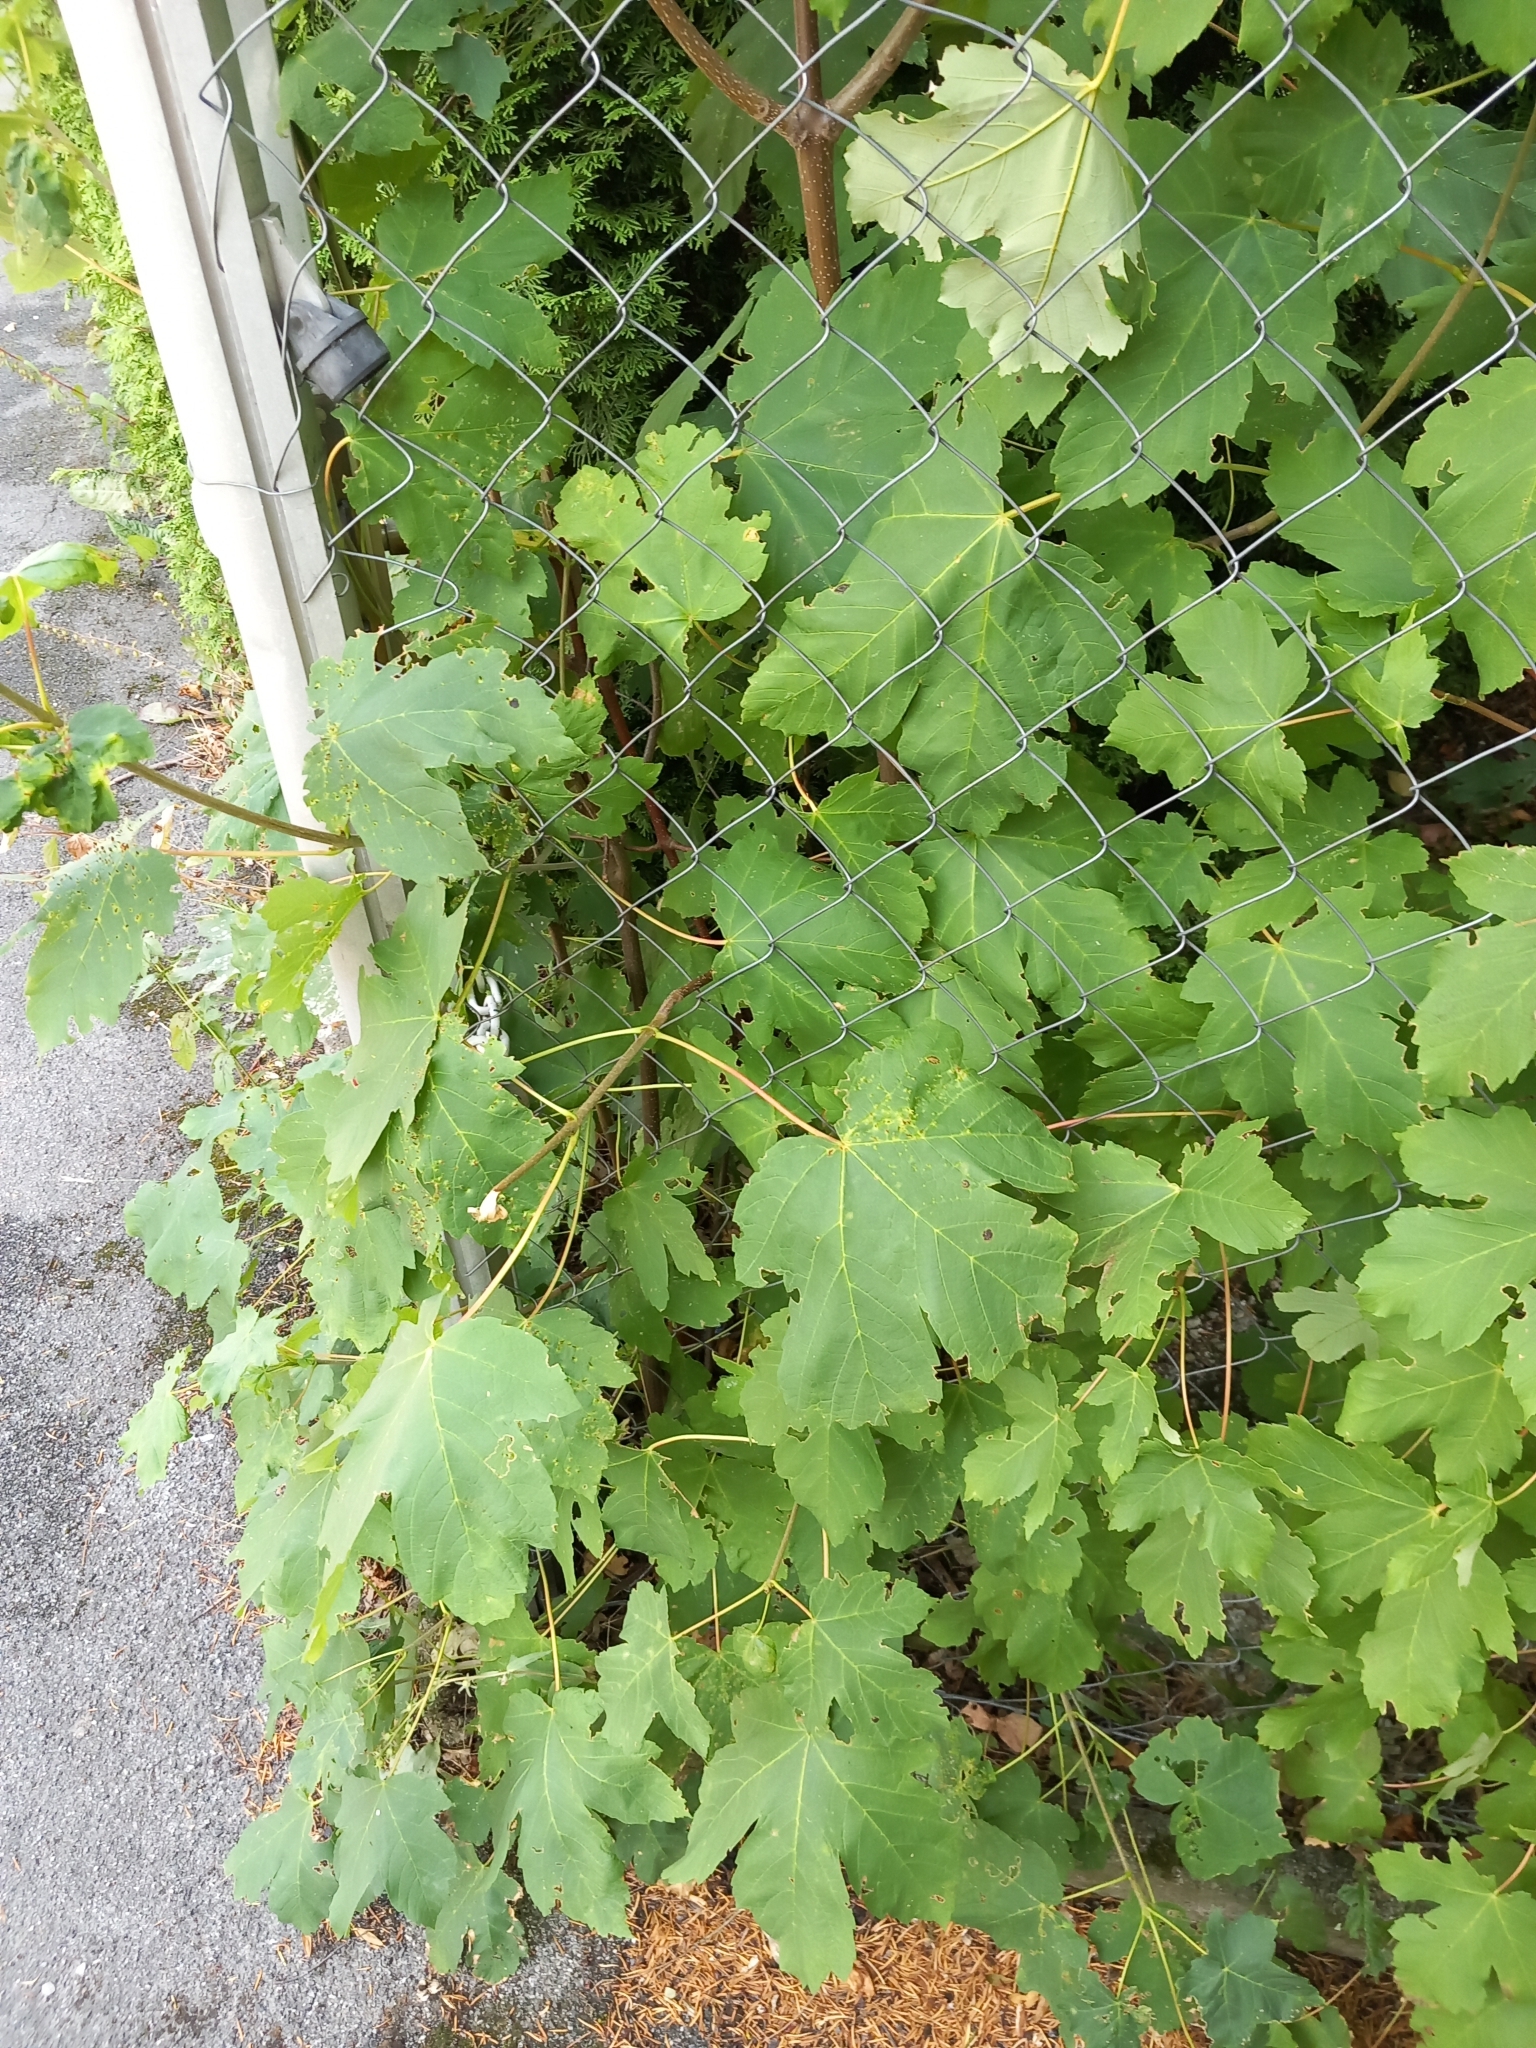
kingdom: Plantae
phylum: Tracheophyta
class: Magnoliopsida
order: Sapindales
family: Sapindaceae
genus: Acer
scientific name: Acer pseudoplatanus
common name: Sycamore
